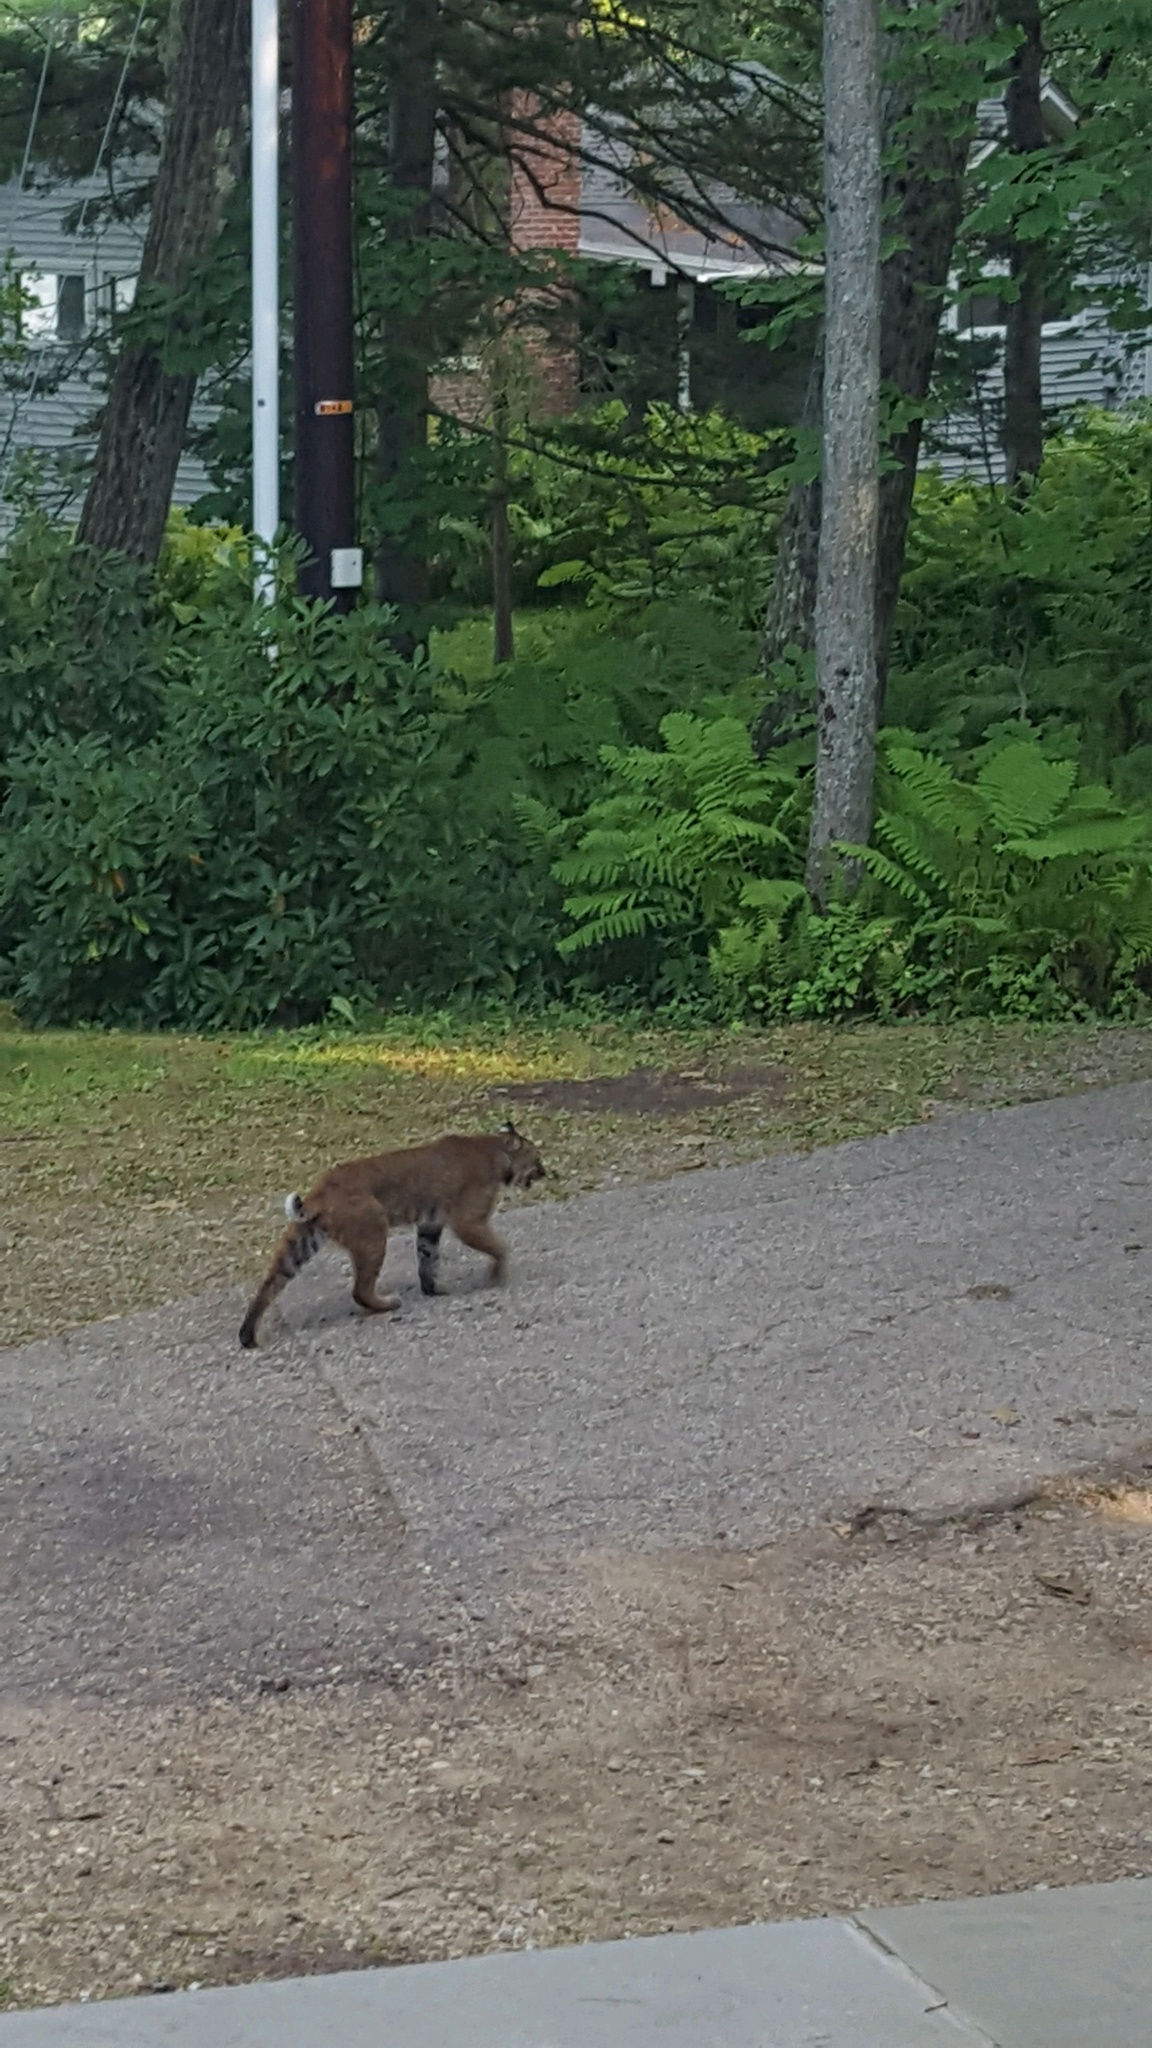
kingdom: Animalia
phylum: Chordata
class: Mammalia
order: Carnivora
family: Felidae
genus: Lynx
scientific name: Lynx rufus
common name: Bobcat
